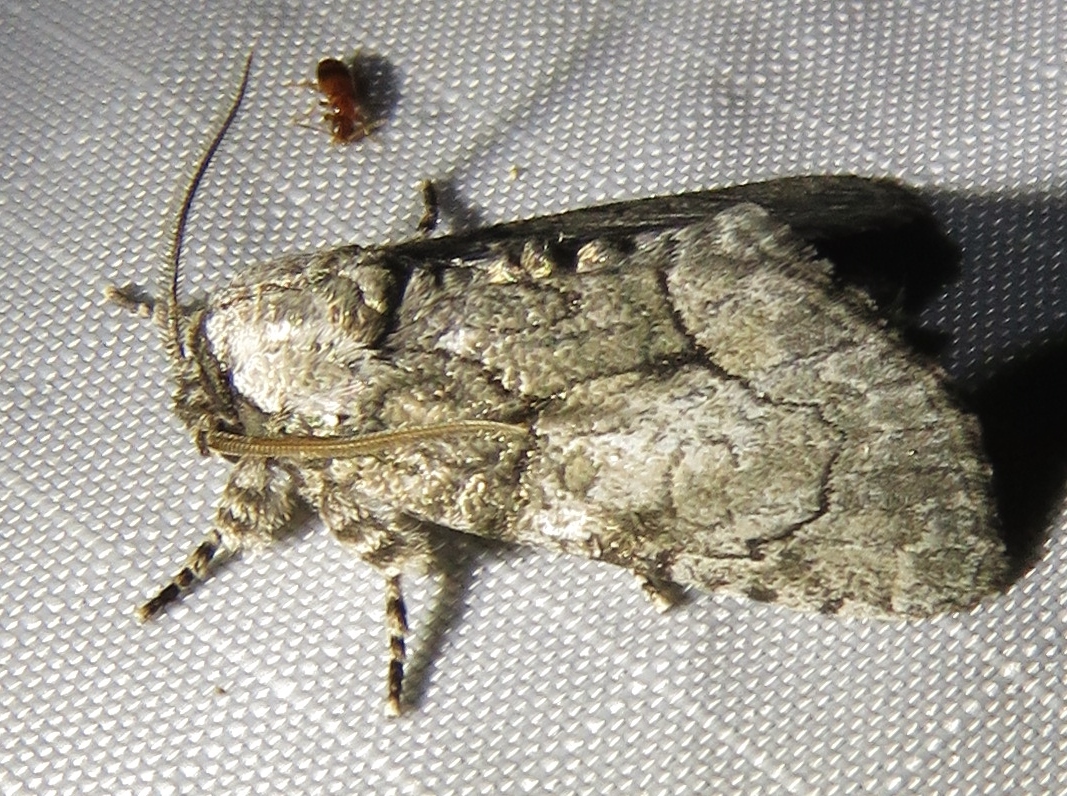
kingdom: Animalia
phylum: Arthropoda
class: Insecta
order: Lepidoptera
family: Noctuidae
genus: Raphia
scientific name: Raphia frater
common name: Brother
